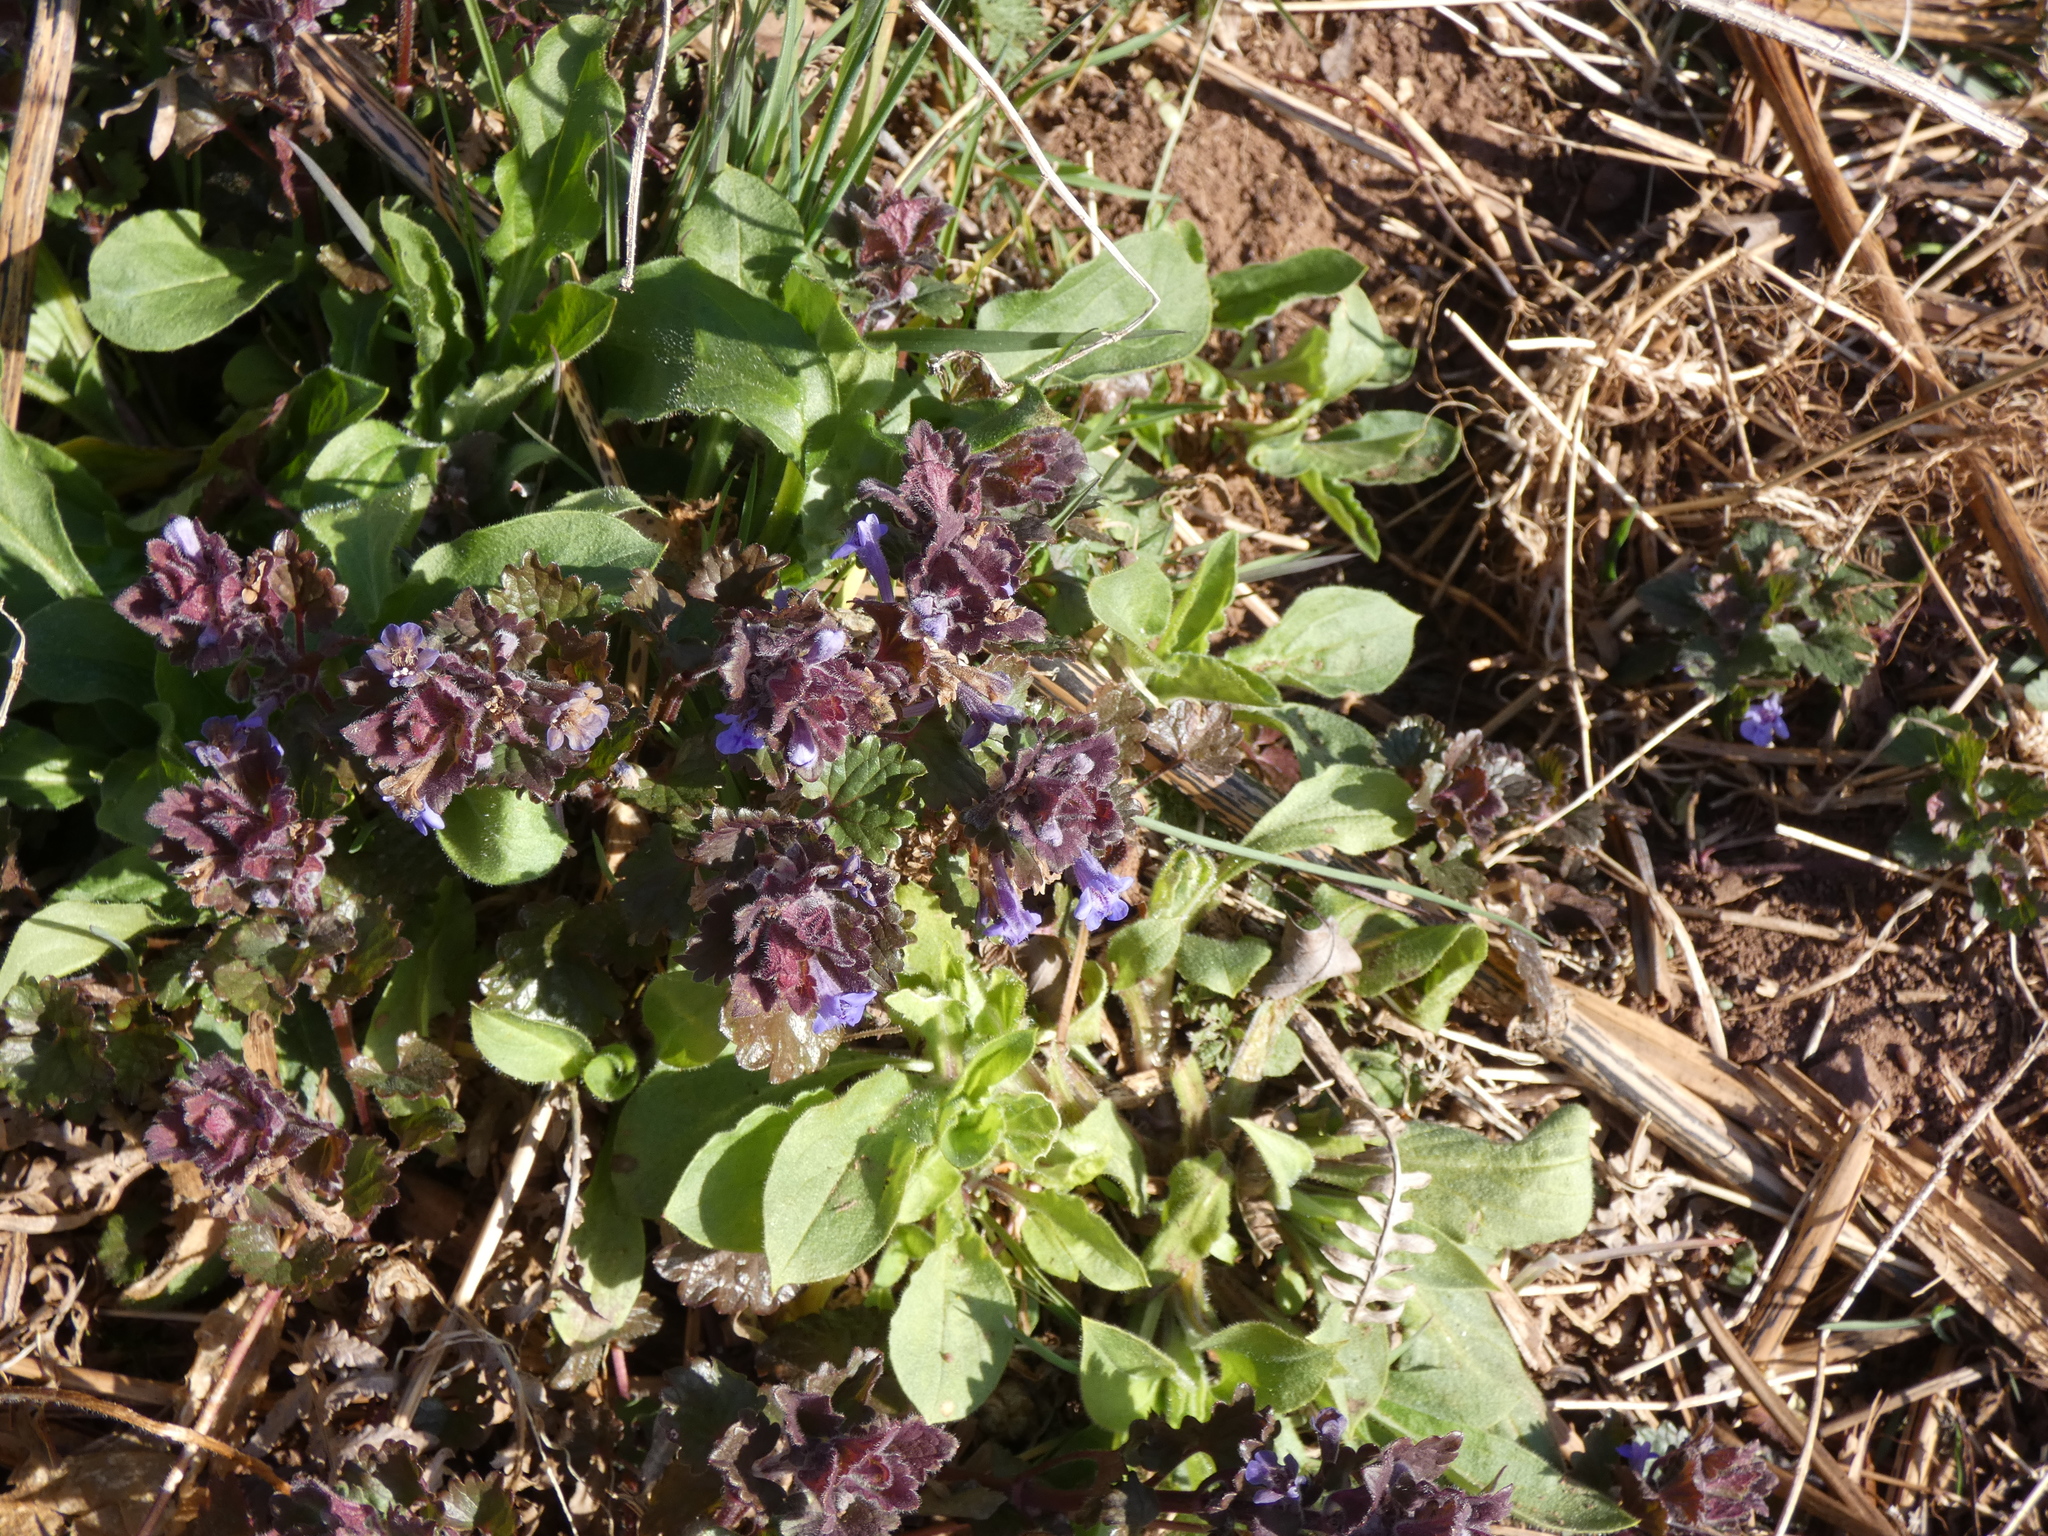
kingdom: Plantae
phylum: Tracheophyta
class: Magnoliopsida
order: Lamiales
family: Lamiaceae
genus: Glechoma
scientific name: Glechoma hederacea
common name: Ground ivy
